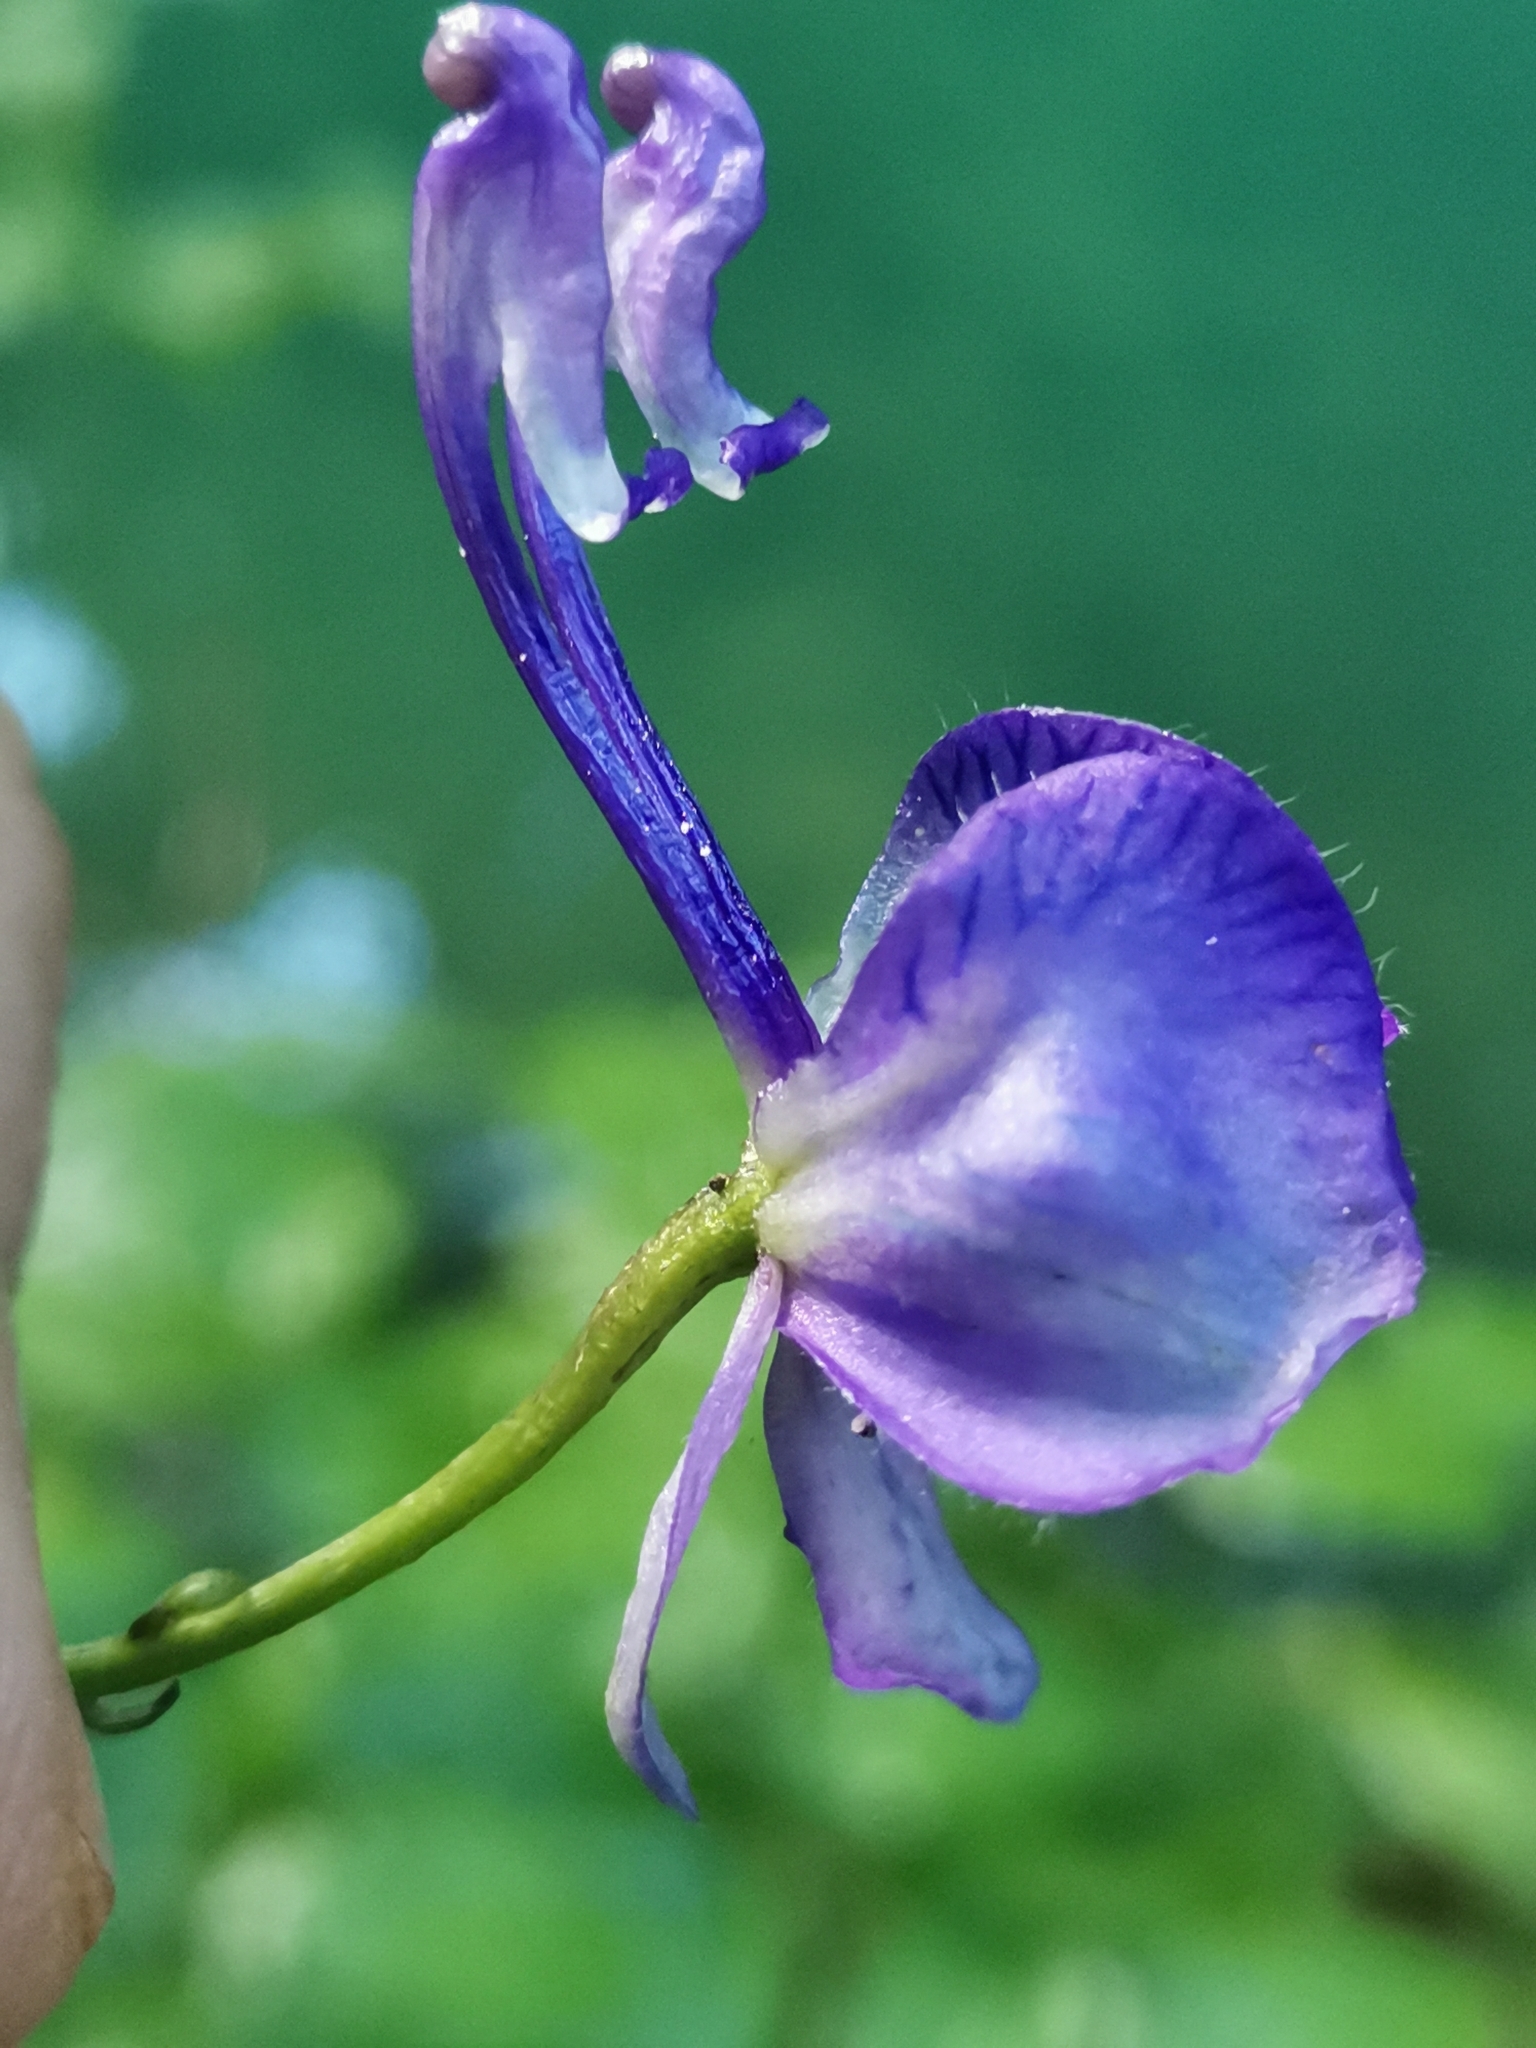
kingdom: Plantae
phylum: Tracheophyta
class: Magnoliopsida
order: Ranunculales
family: Ranunculaceae
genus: Aconitum
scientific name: Aconitum variegatum
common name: Manchurian monkshood
